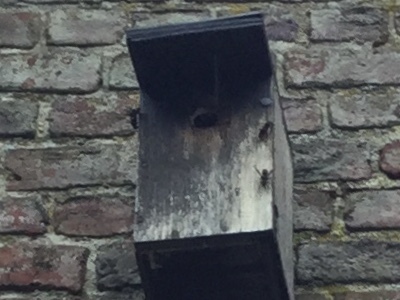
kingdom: Animalia
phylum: Arthropoda
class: Insecta
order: Hymenoptera
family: Vespidae
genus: Vespa
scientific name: Vespa velutina
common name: Asian hornet
